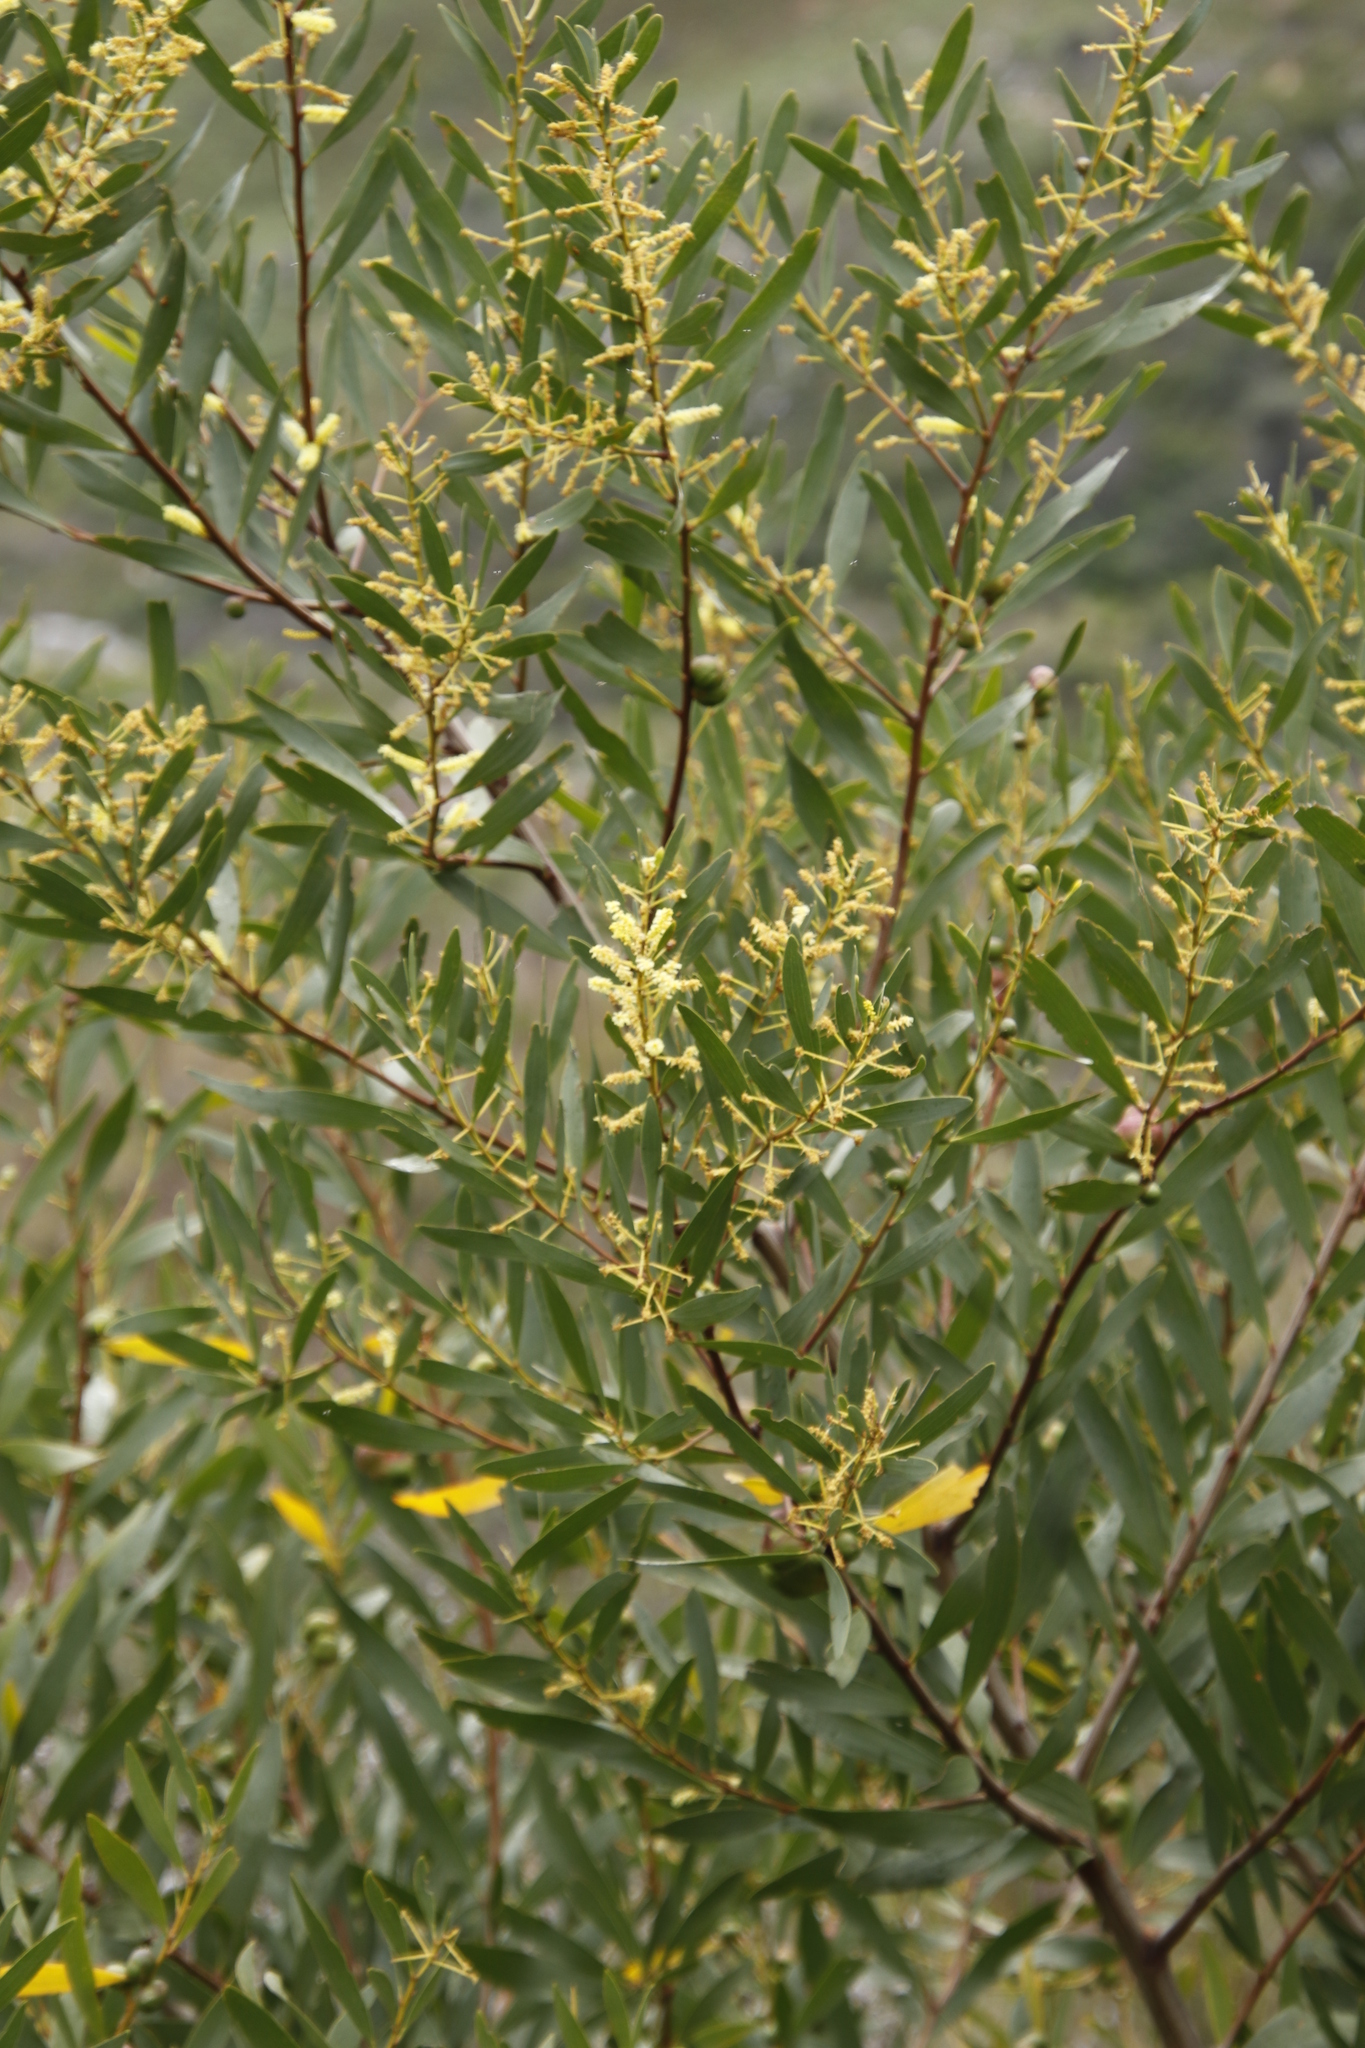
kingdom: Plantae
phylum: Tracheophyta
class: Magnoliopsida
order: Fabales
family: Fabaceae
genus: Acacia
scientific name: Acacia longifolia
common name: Sydney golden wattle
